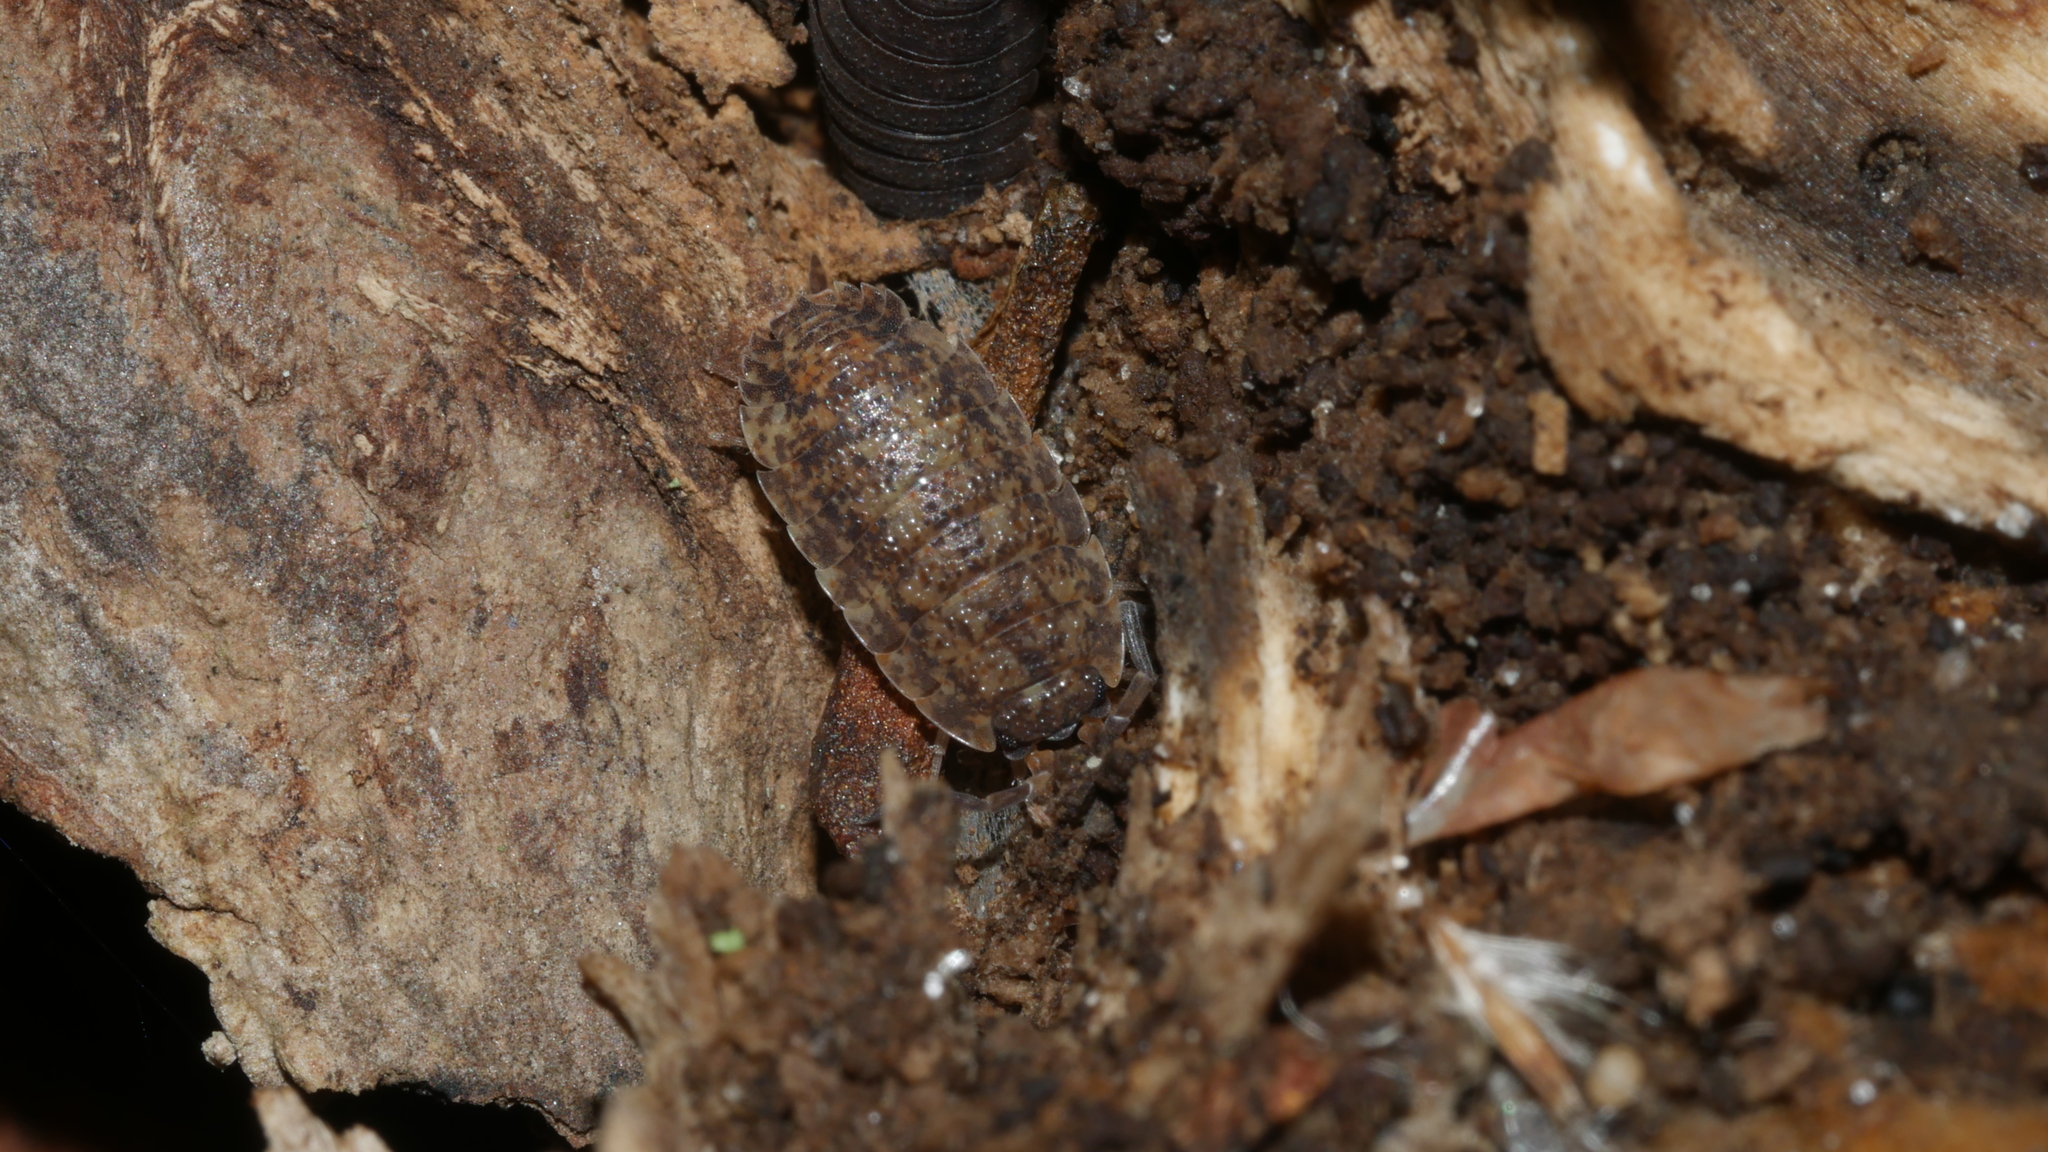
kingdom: Animalia
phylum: Arthropoda
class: Malacostraca
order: Isopoda
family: Porcellionidae
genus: Porcellio
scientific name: Porcellio scaber
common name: Common rough woodlouse
